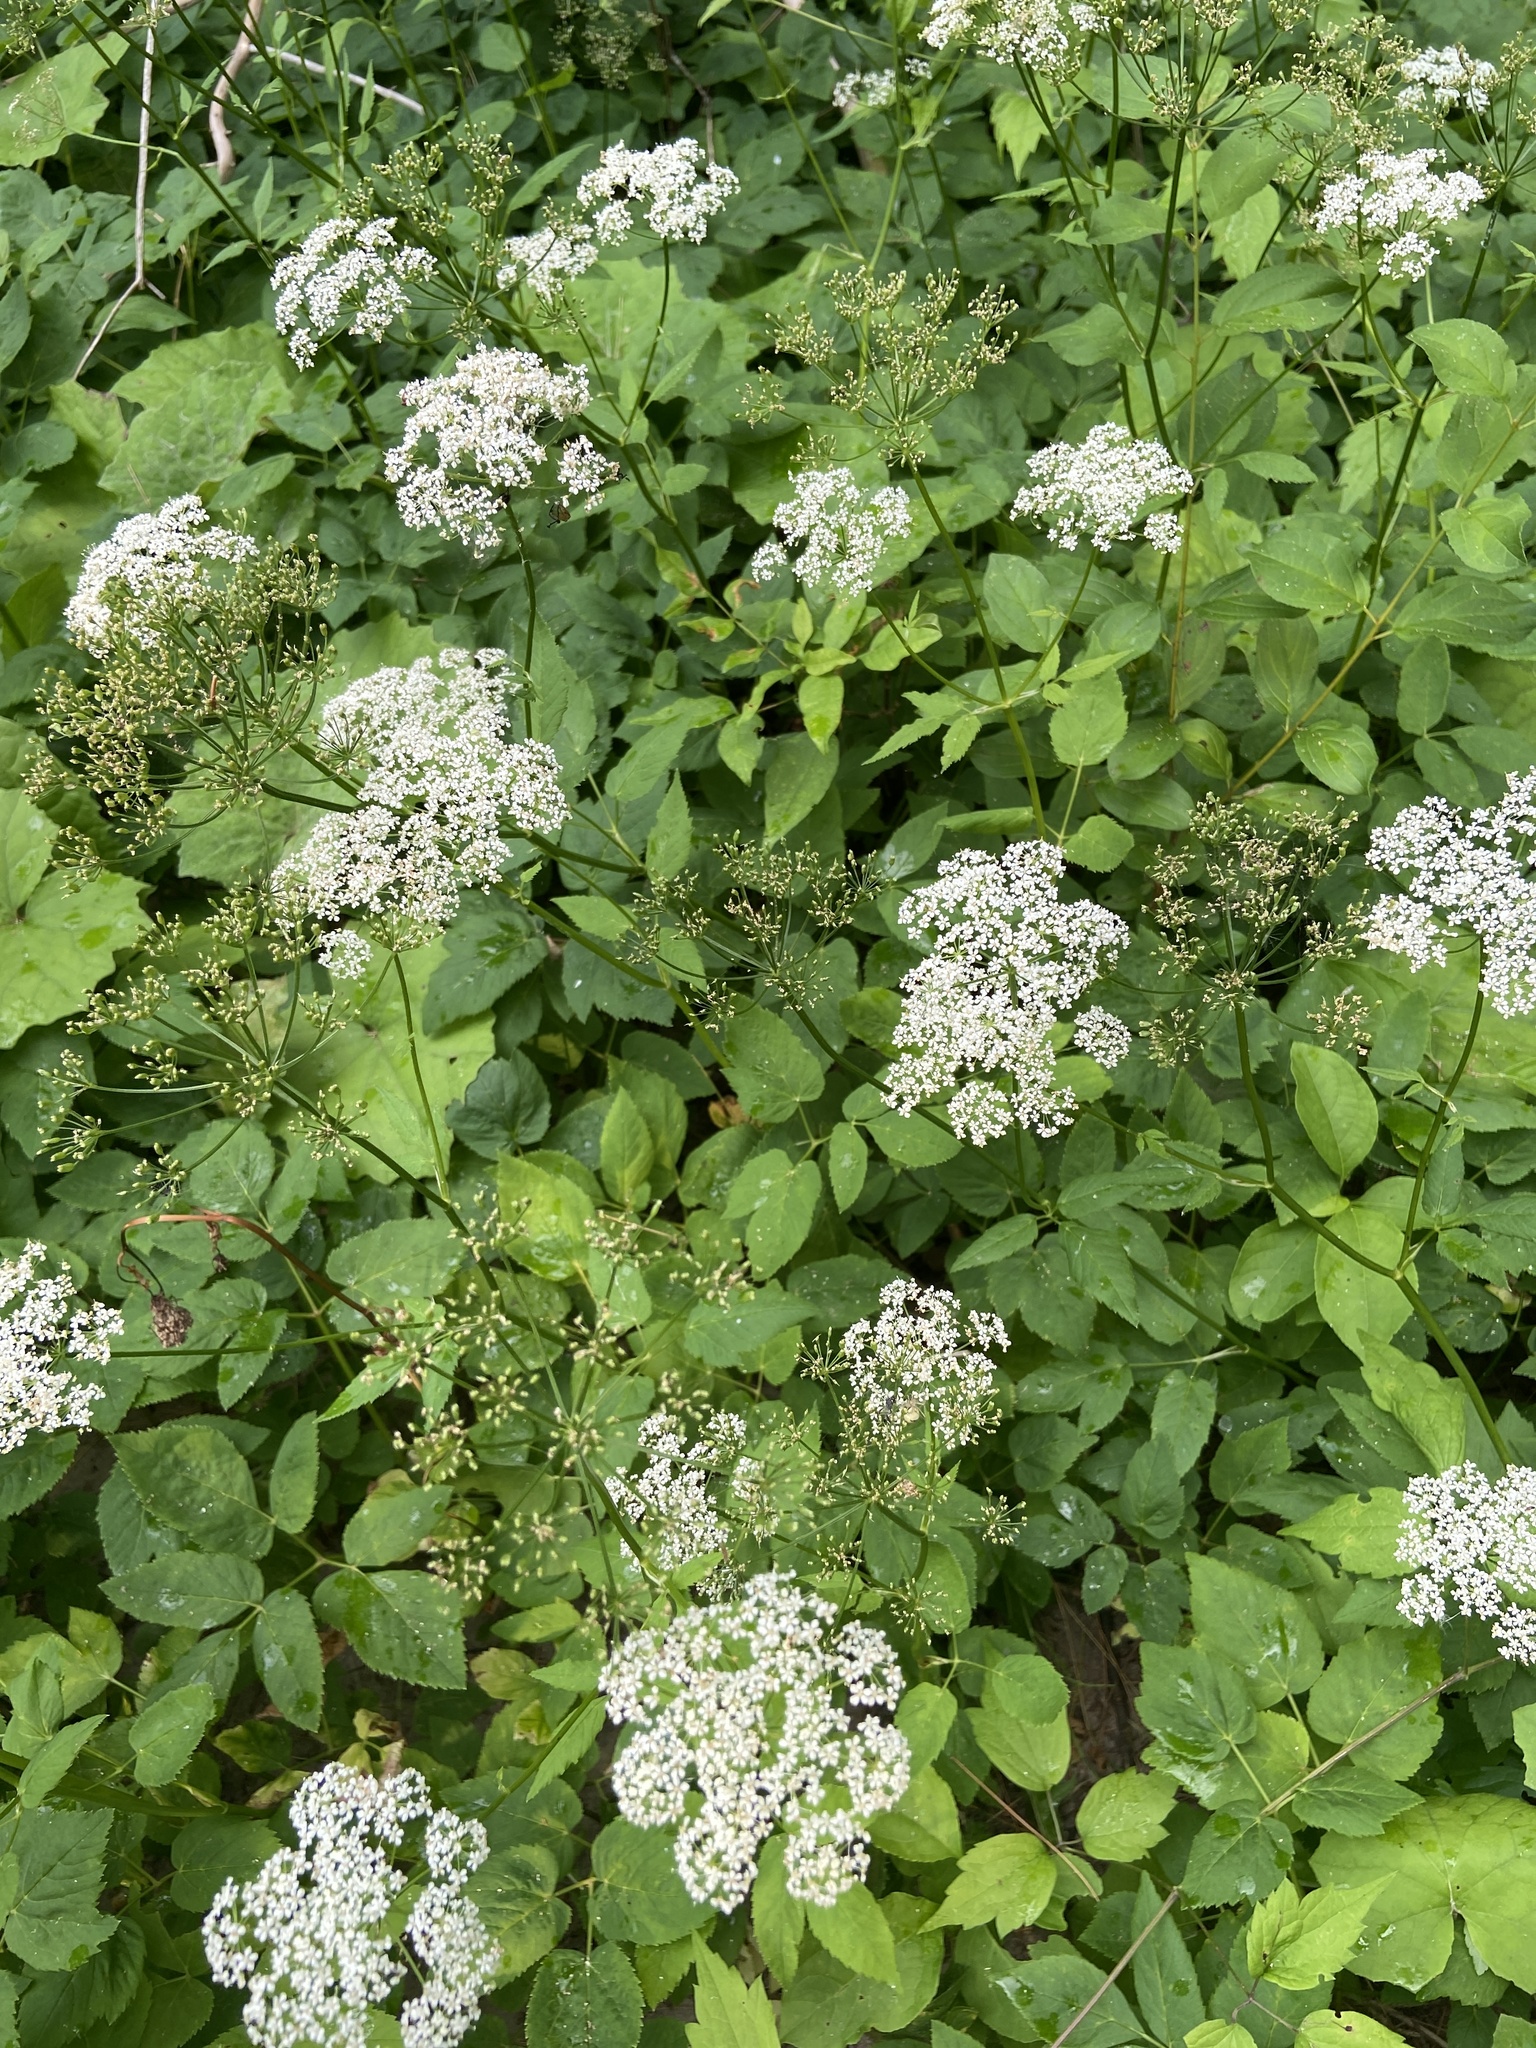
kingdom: Plantae
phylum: Tracheophyta
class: Magnoliopsida
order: Apiales
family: Apiaceae
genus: Aegopodium
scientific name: Aegopodium podagraria
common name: Ground-elder
